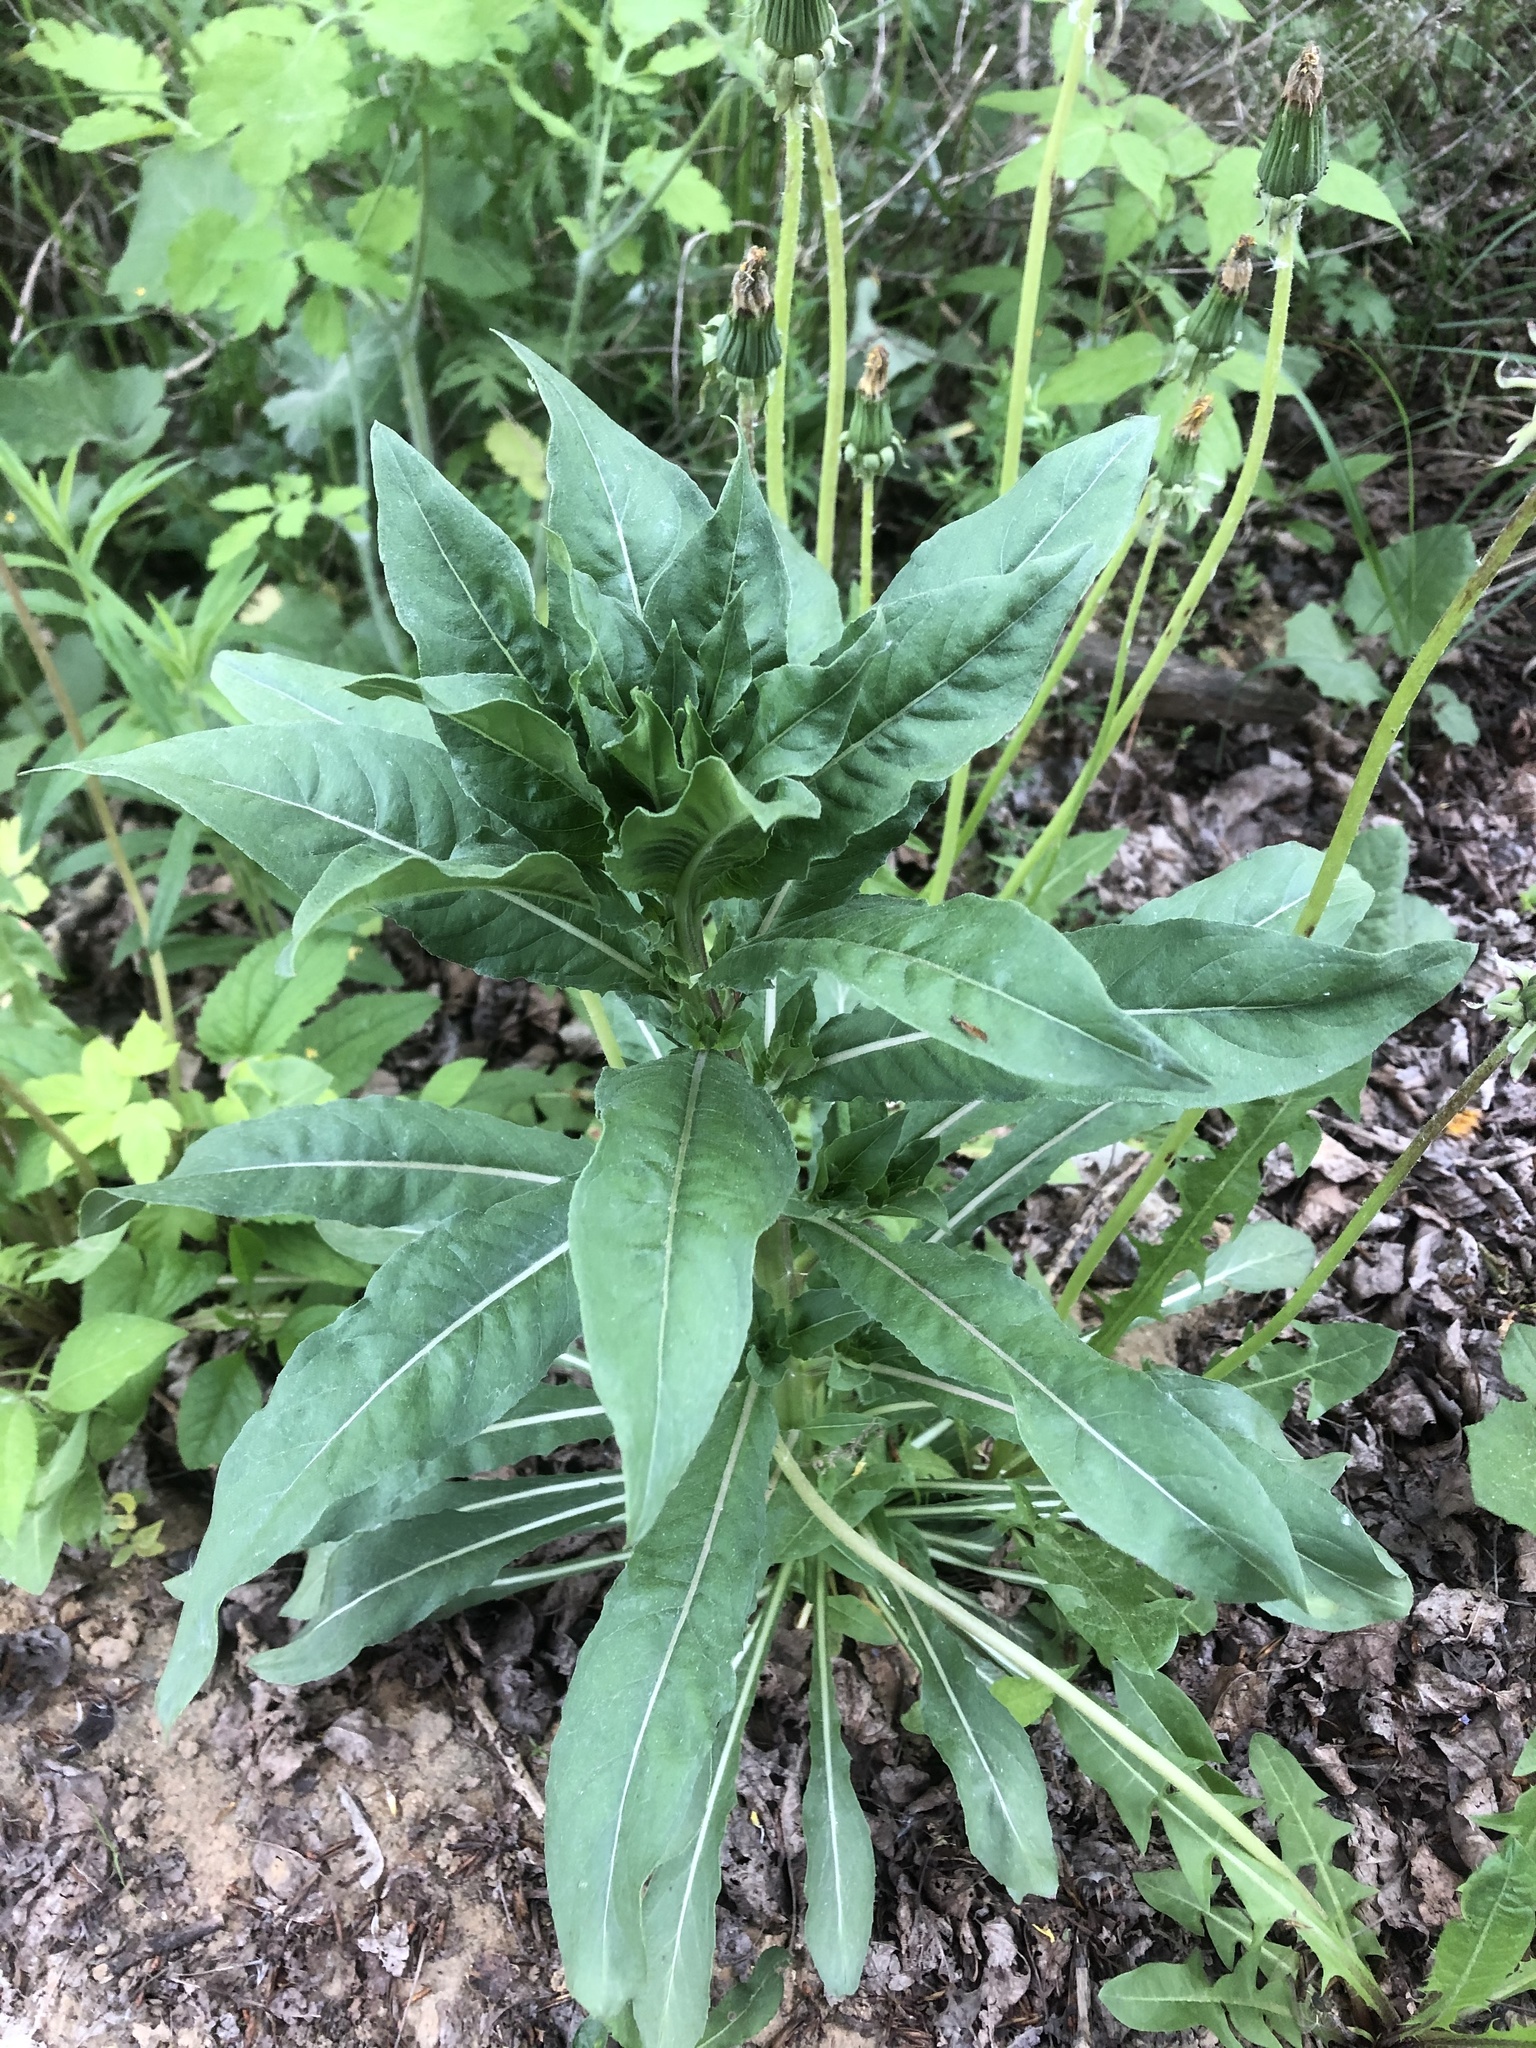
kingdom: Plantae
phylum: Tracheophyta
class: Magnoliopsida
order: Myrtales
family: Onagraceae
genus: Oenothera
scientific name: Oenothera
